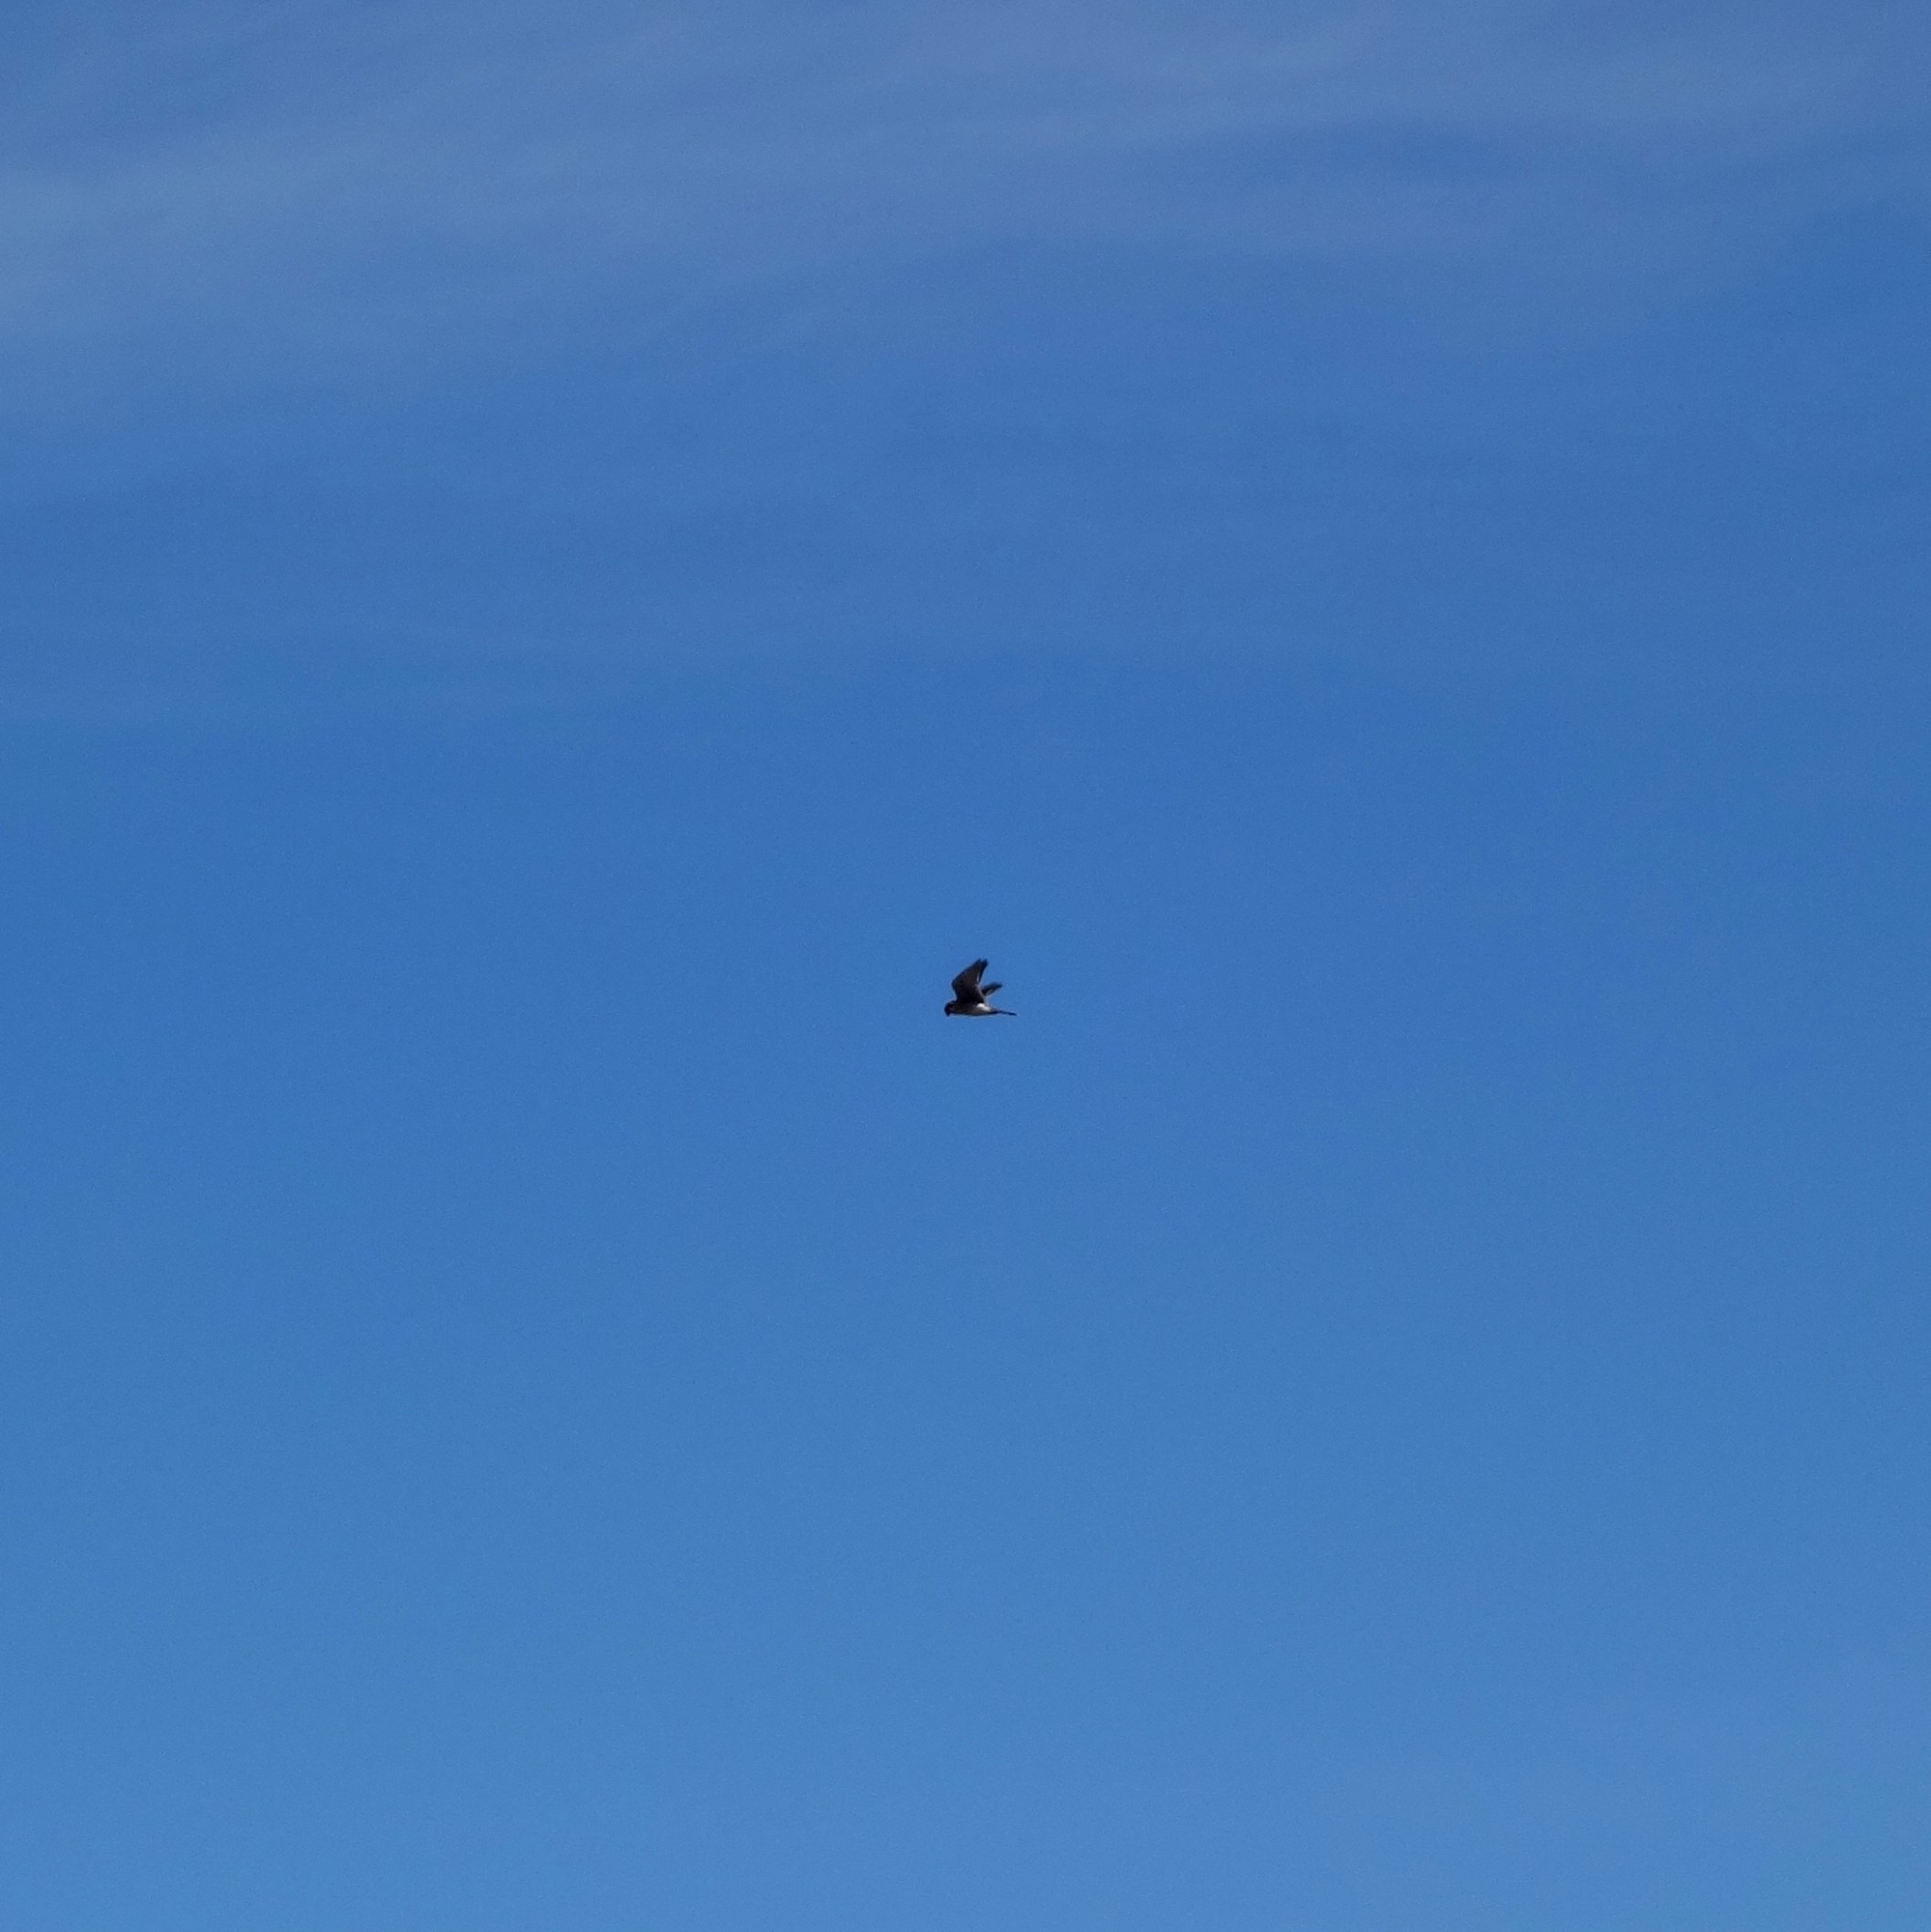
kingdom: Animalia
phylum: Chordata
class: Aves
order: Falconiformes
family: Falconidae
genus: Falco
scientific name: Falco sparverius
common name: American kestrel
